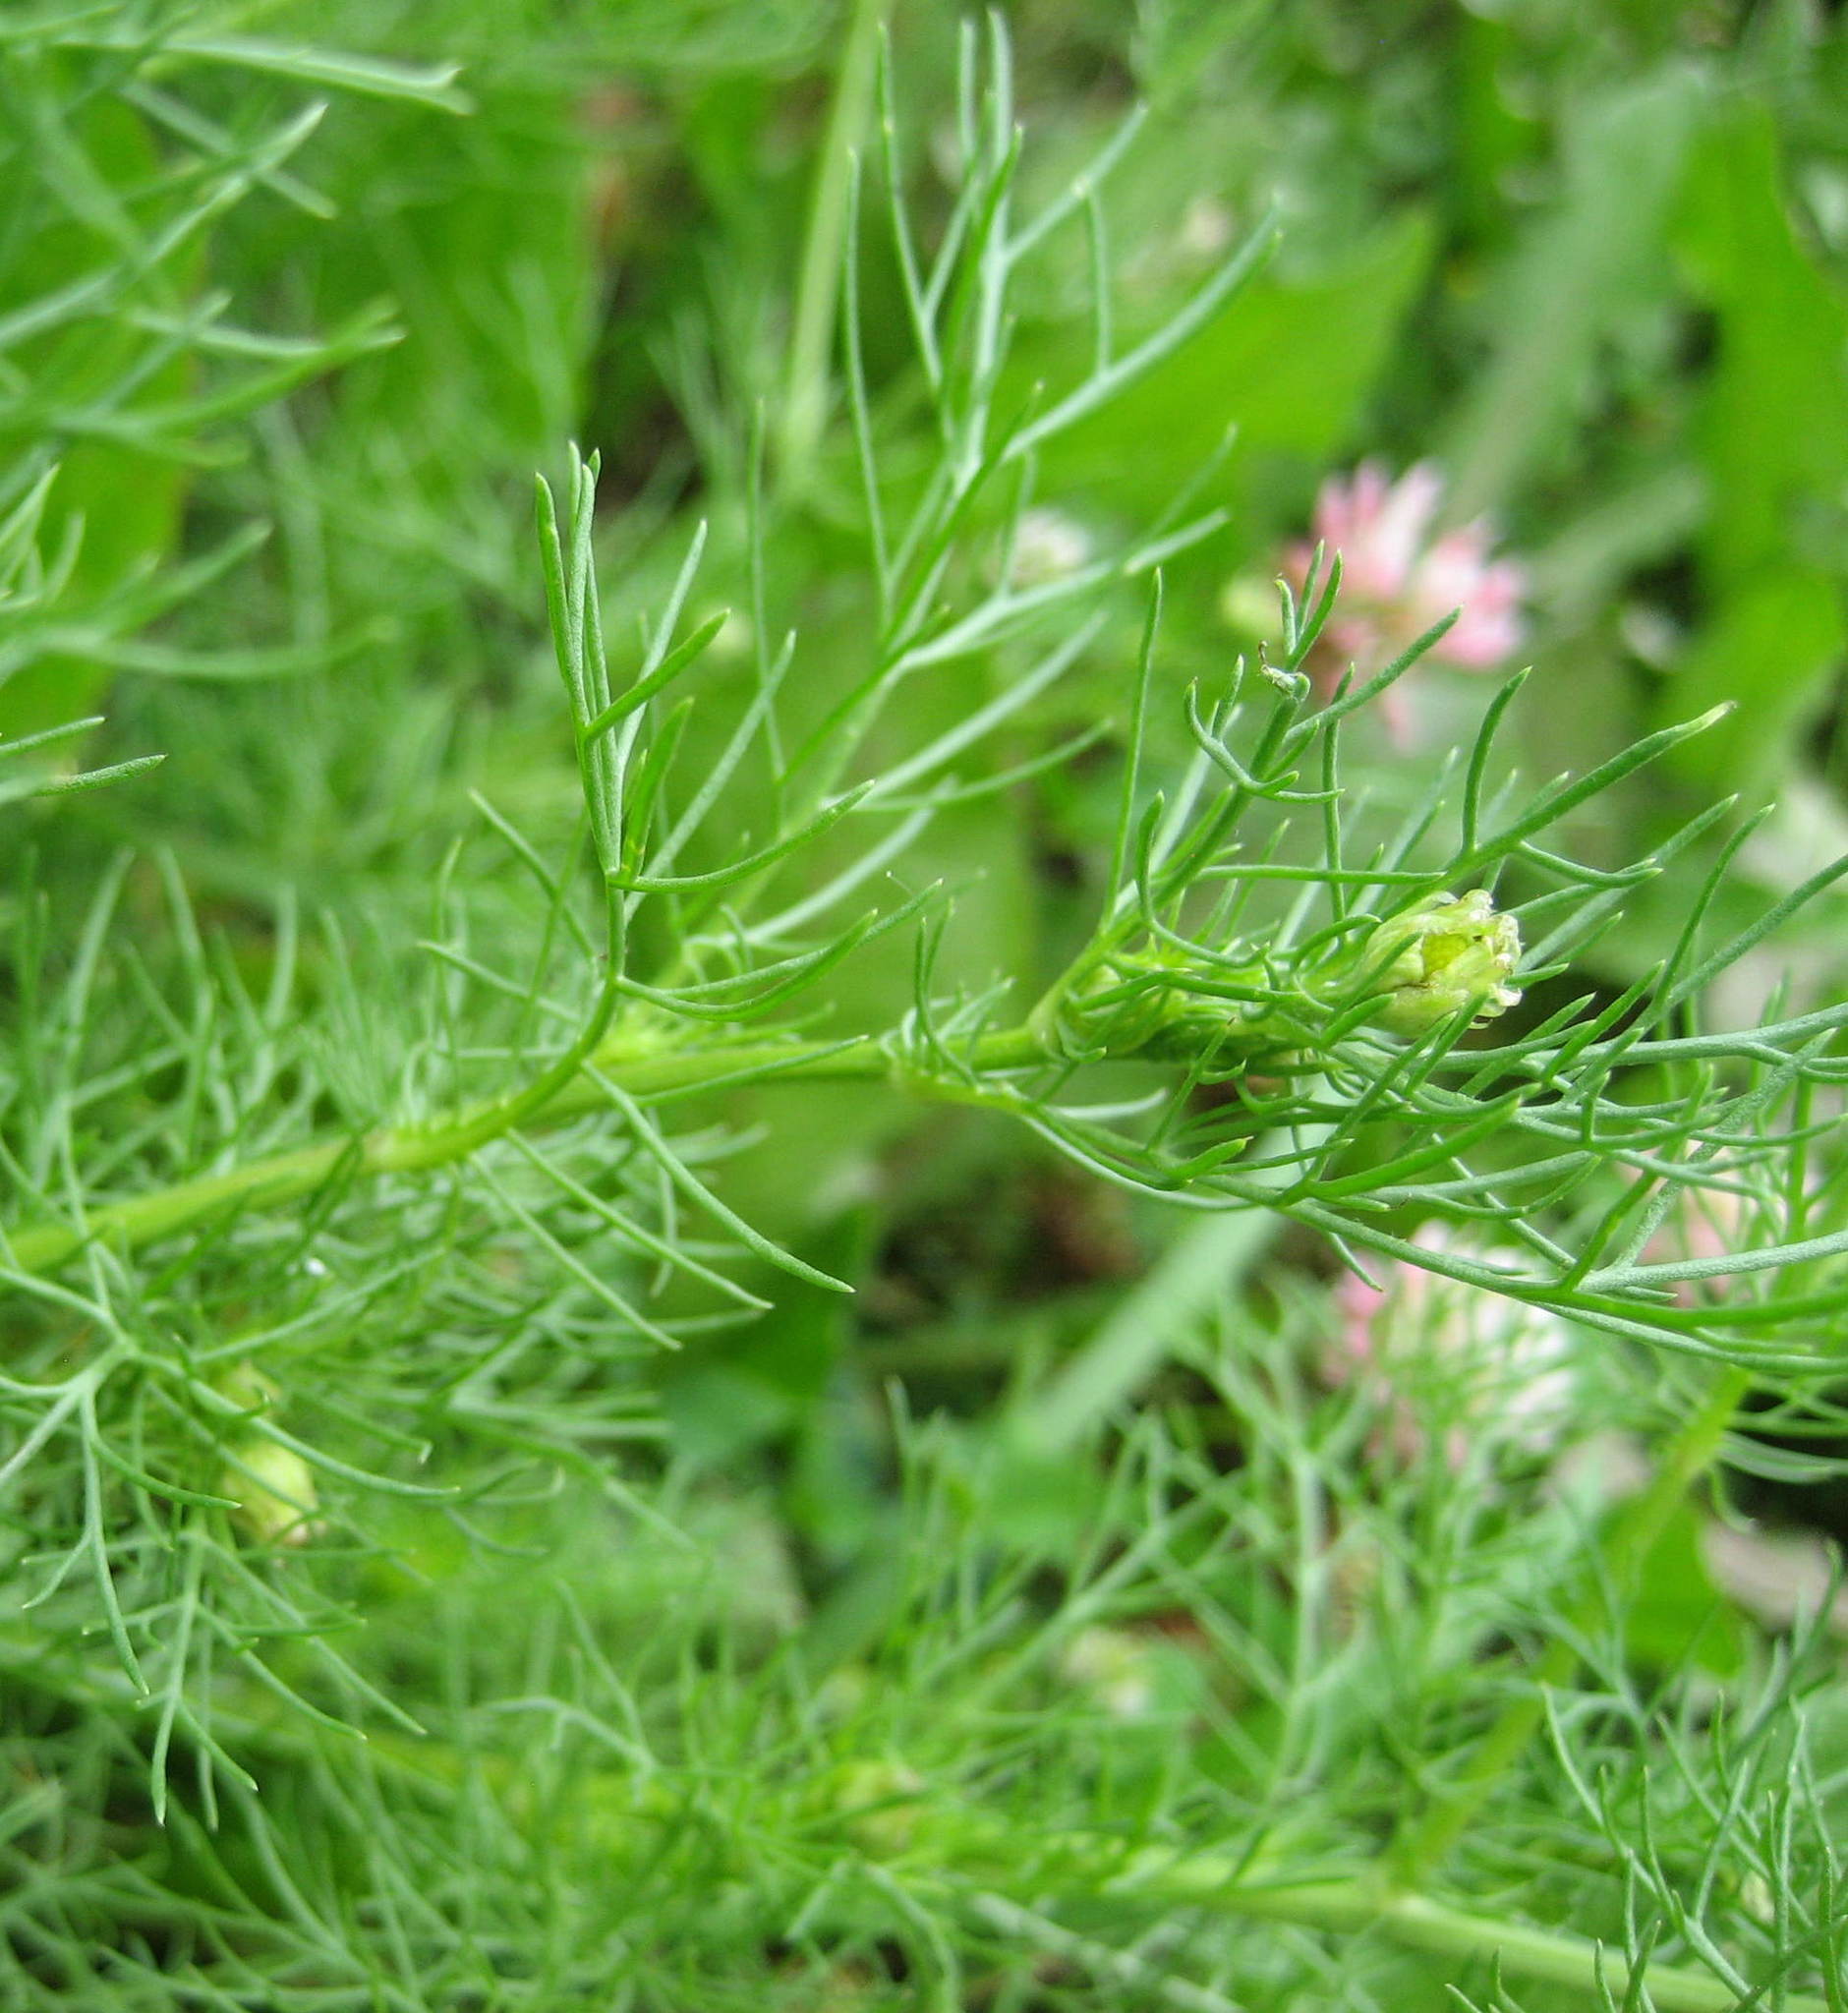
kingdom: Plantae
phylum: Tracheophyta
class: Magnoliopsida
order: Asterales
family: Asteraceae
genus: Tripleurospermum
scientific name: Tripleurospermum inodorum
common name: Scentless mayweed
